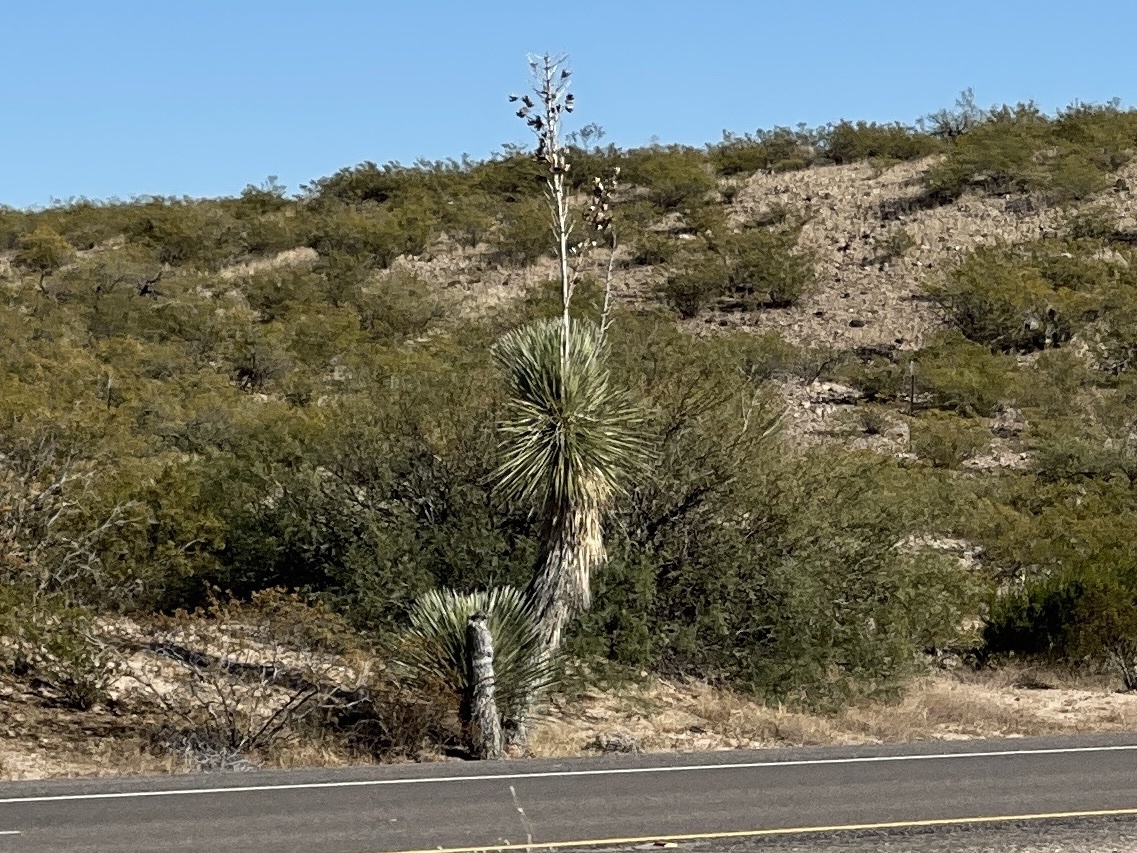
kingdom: Plantae
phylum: Tracheophyta
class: Liliopsida
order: Asparagales
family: Asparagaceae
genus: Yucca
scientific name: Yucca elata
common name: Palmella
